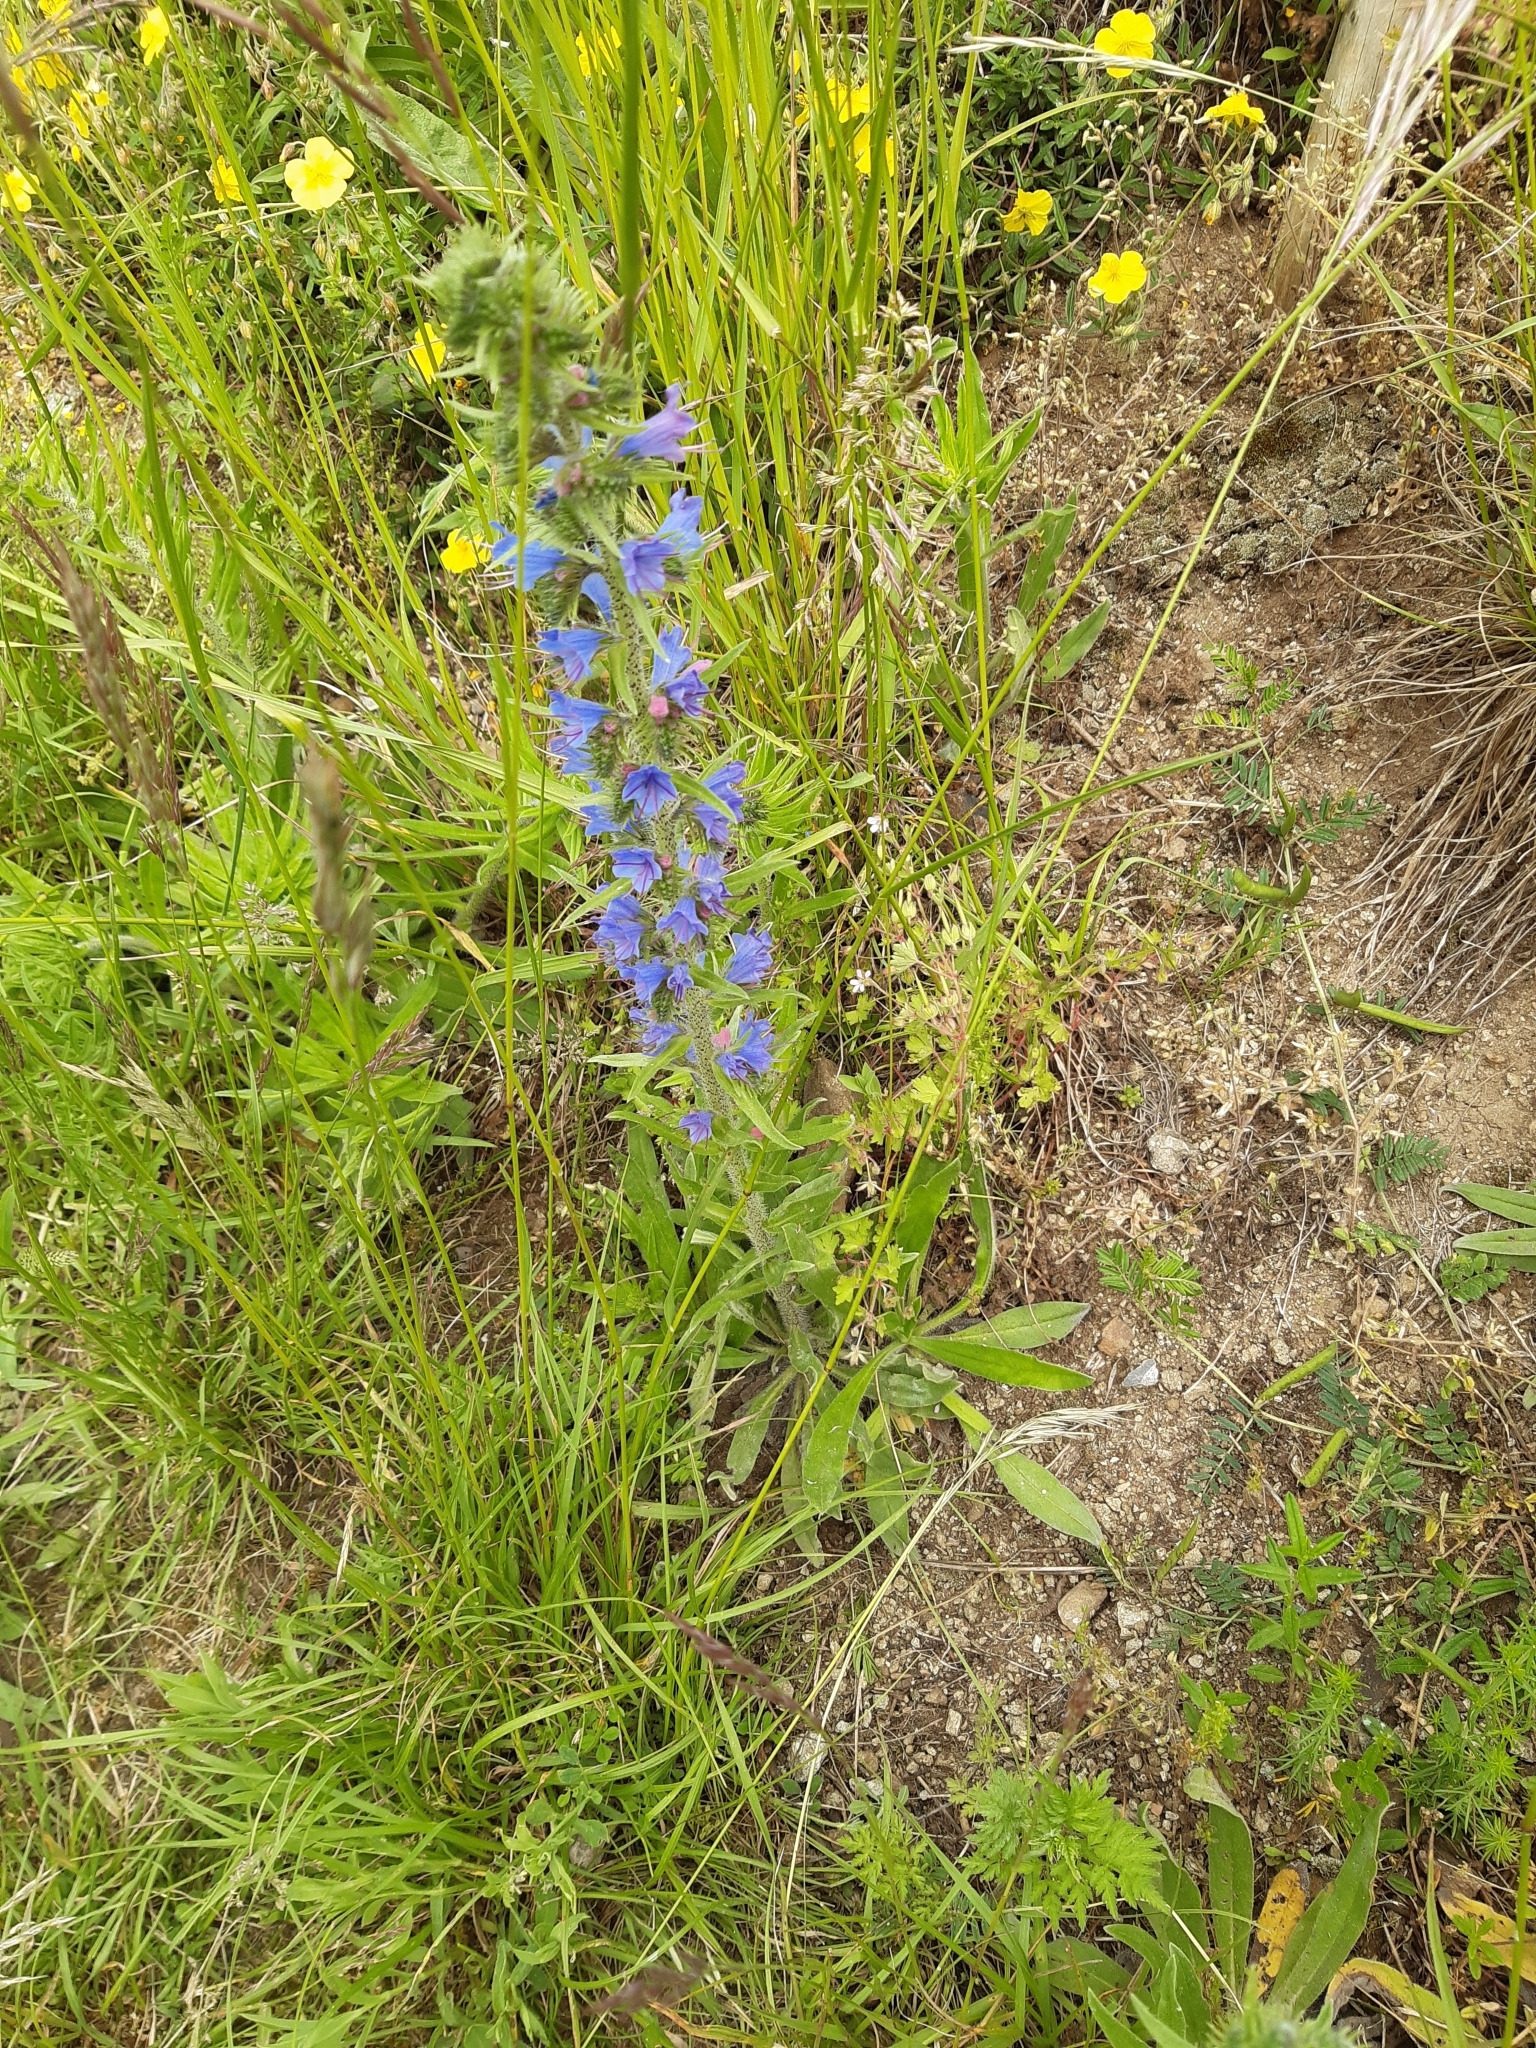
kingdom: Plantae
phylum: Tracheophyta
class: Magnoliopsida
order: Boraginales
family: Boraginaceae
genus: Echium
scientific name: Echium vulgare
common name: Common viper's bugloss
